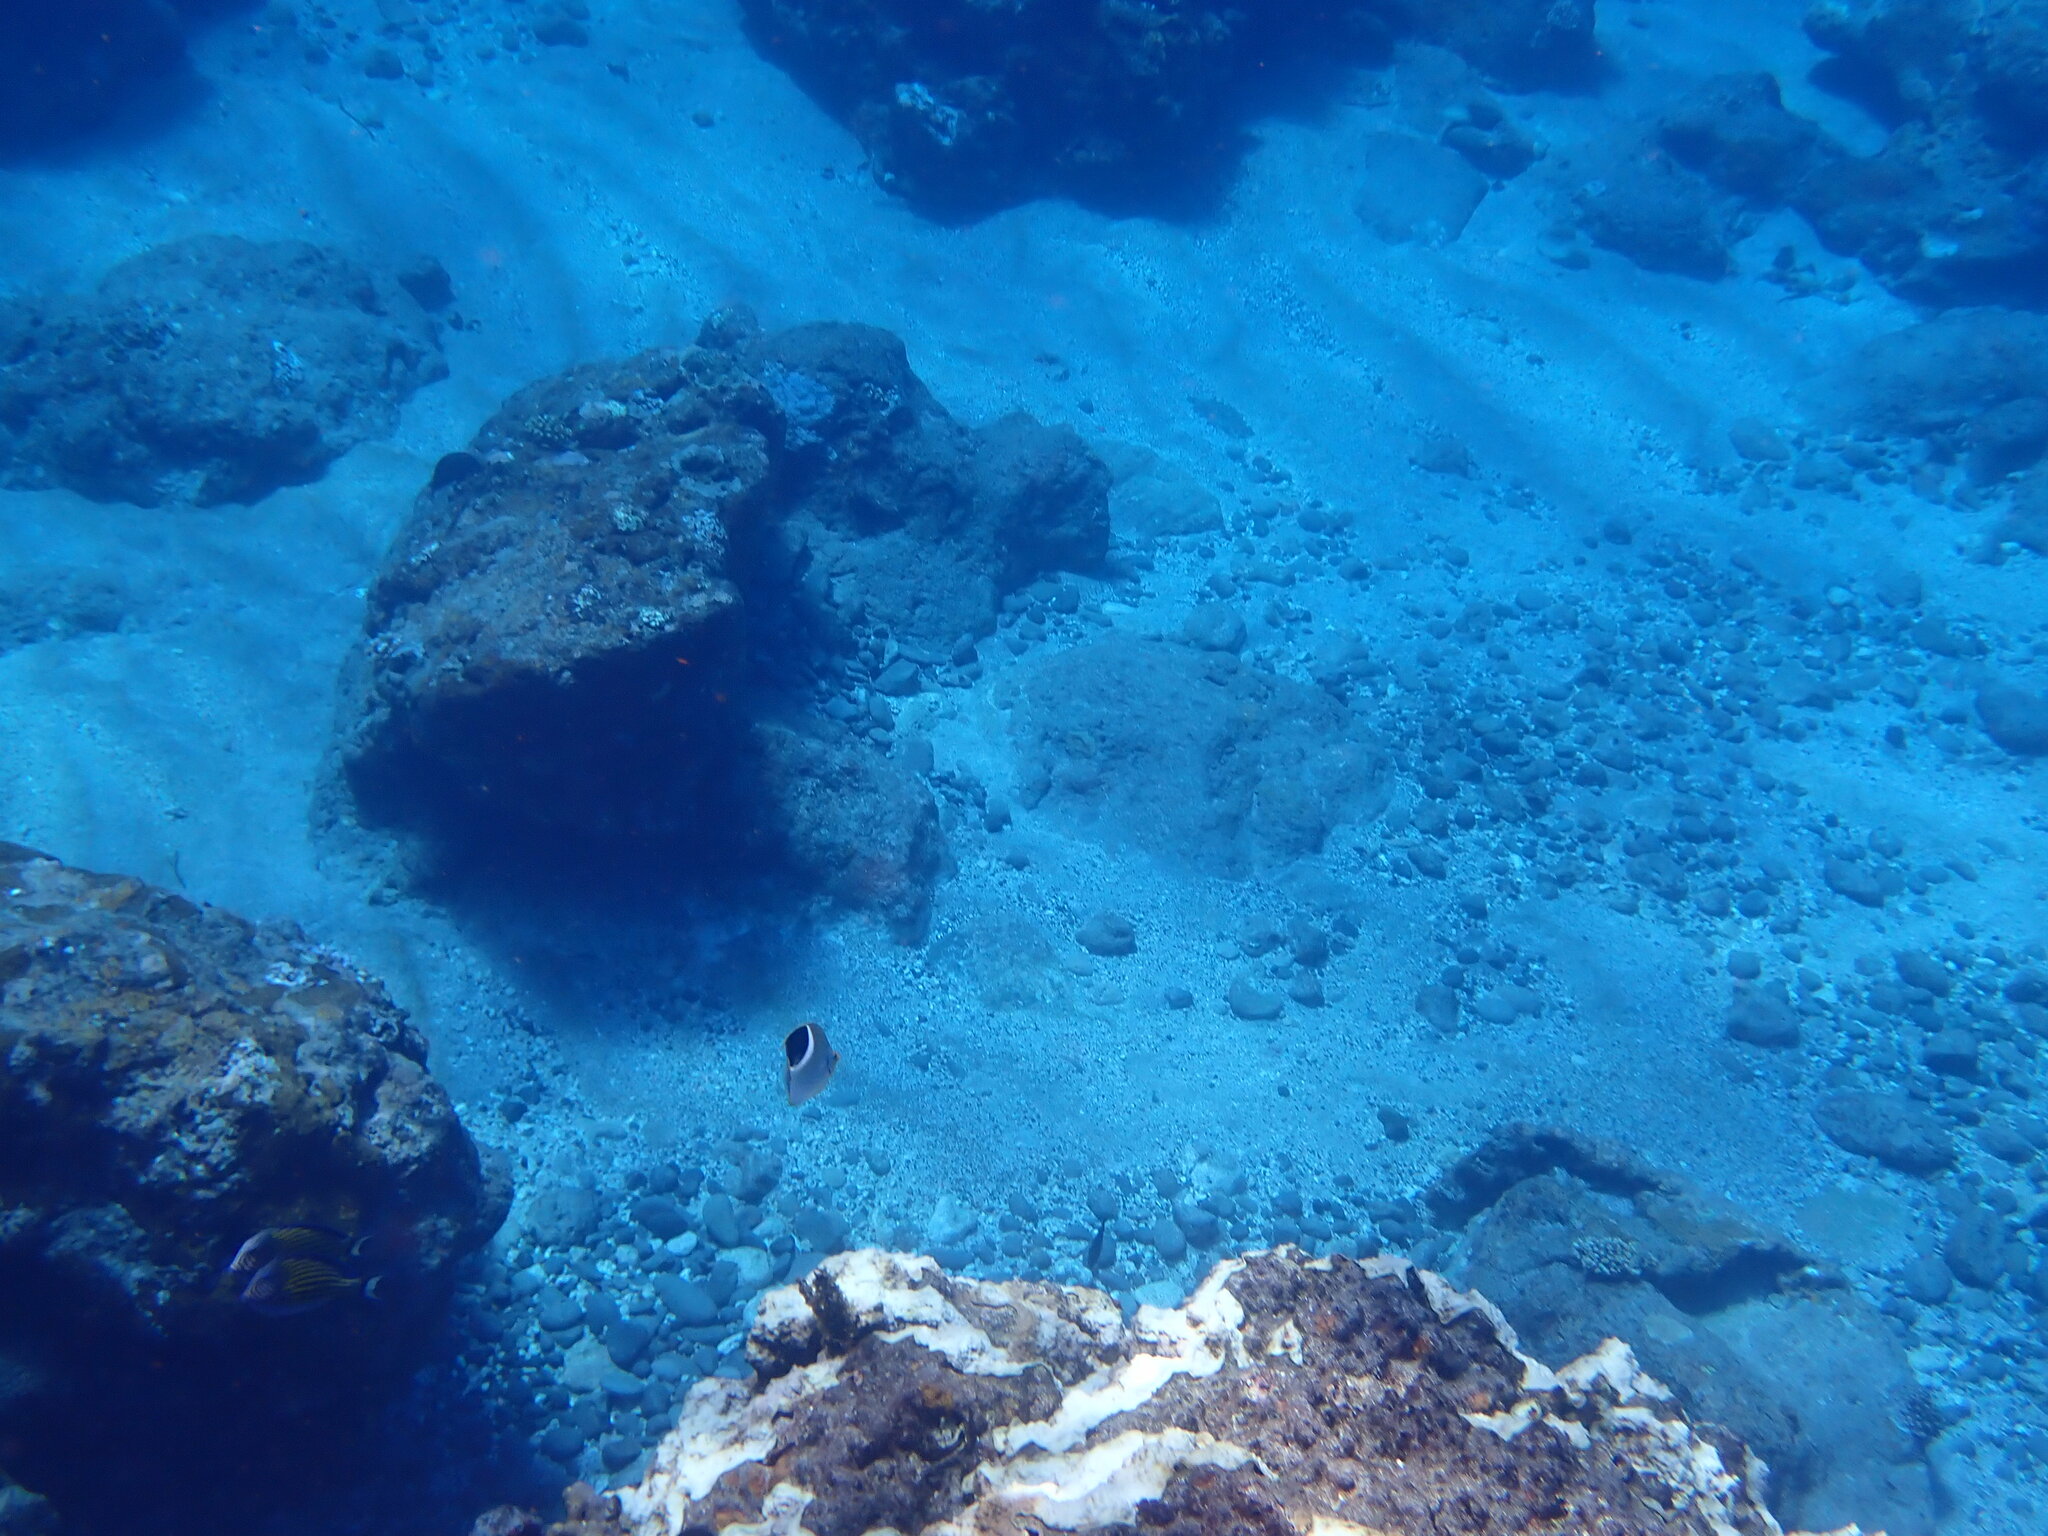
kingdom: Animalia
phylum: Chordata
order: Perciformes
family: Chaetodontidae
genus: Chaetodon
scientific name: Chaetodon ephippium
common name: Saddled butterflyfish
